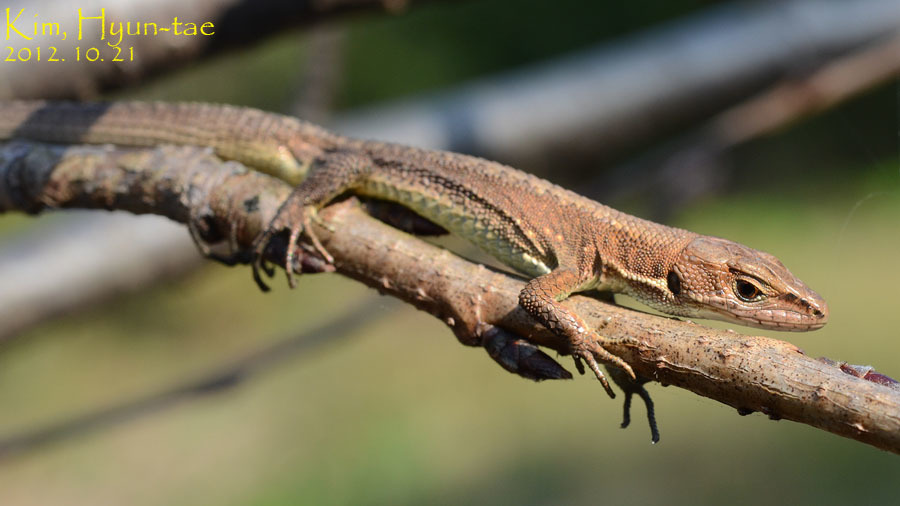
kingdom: Animalia
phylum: Chordata
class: Squamata
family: Lacertidae
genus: Takydromus
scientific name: Takydromus amurensis
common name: Amur grass lizard
